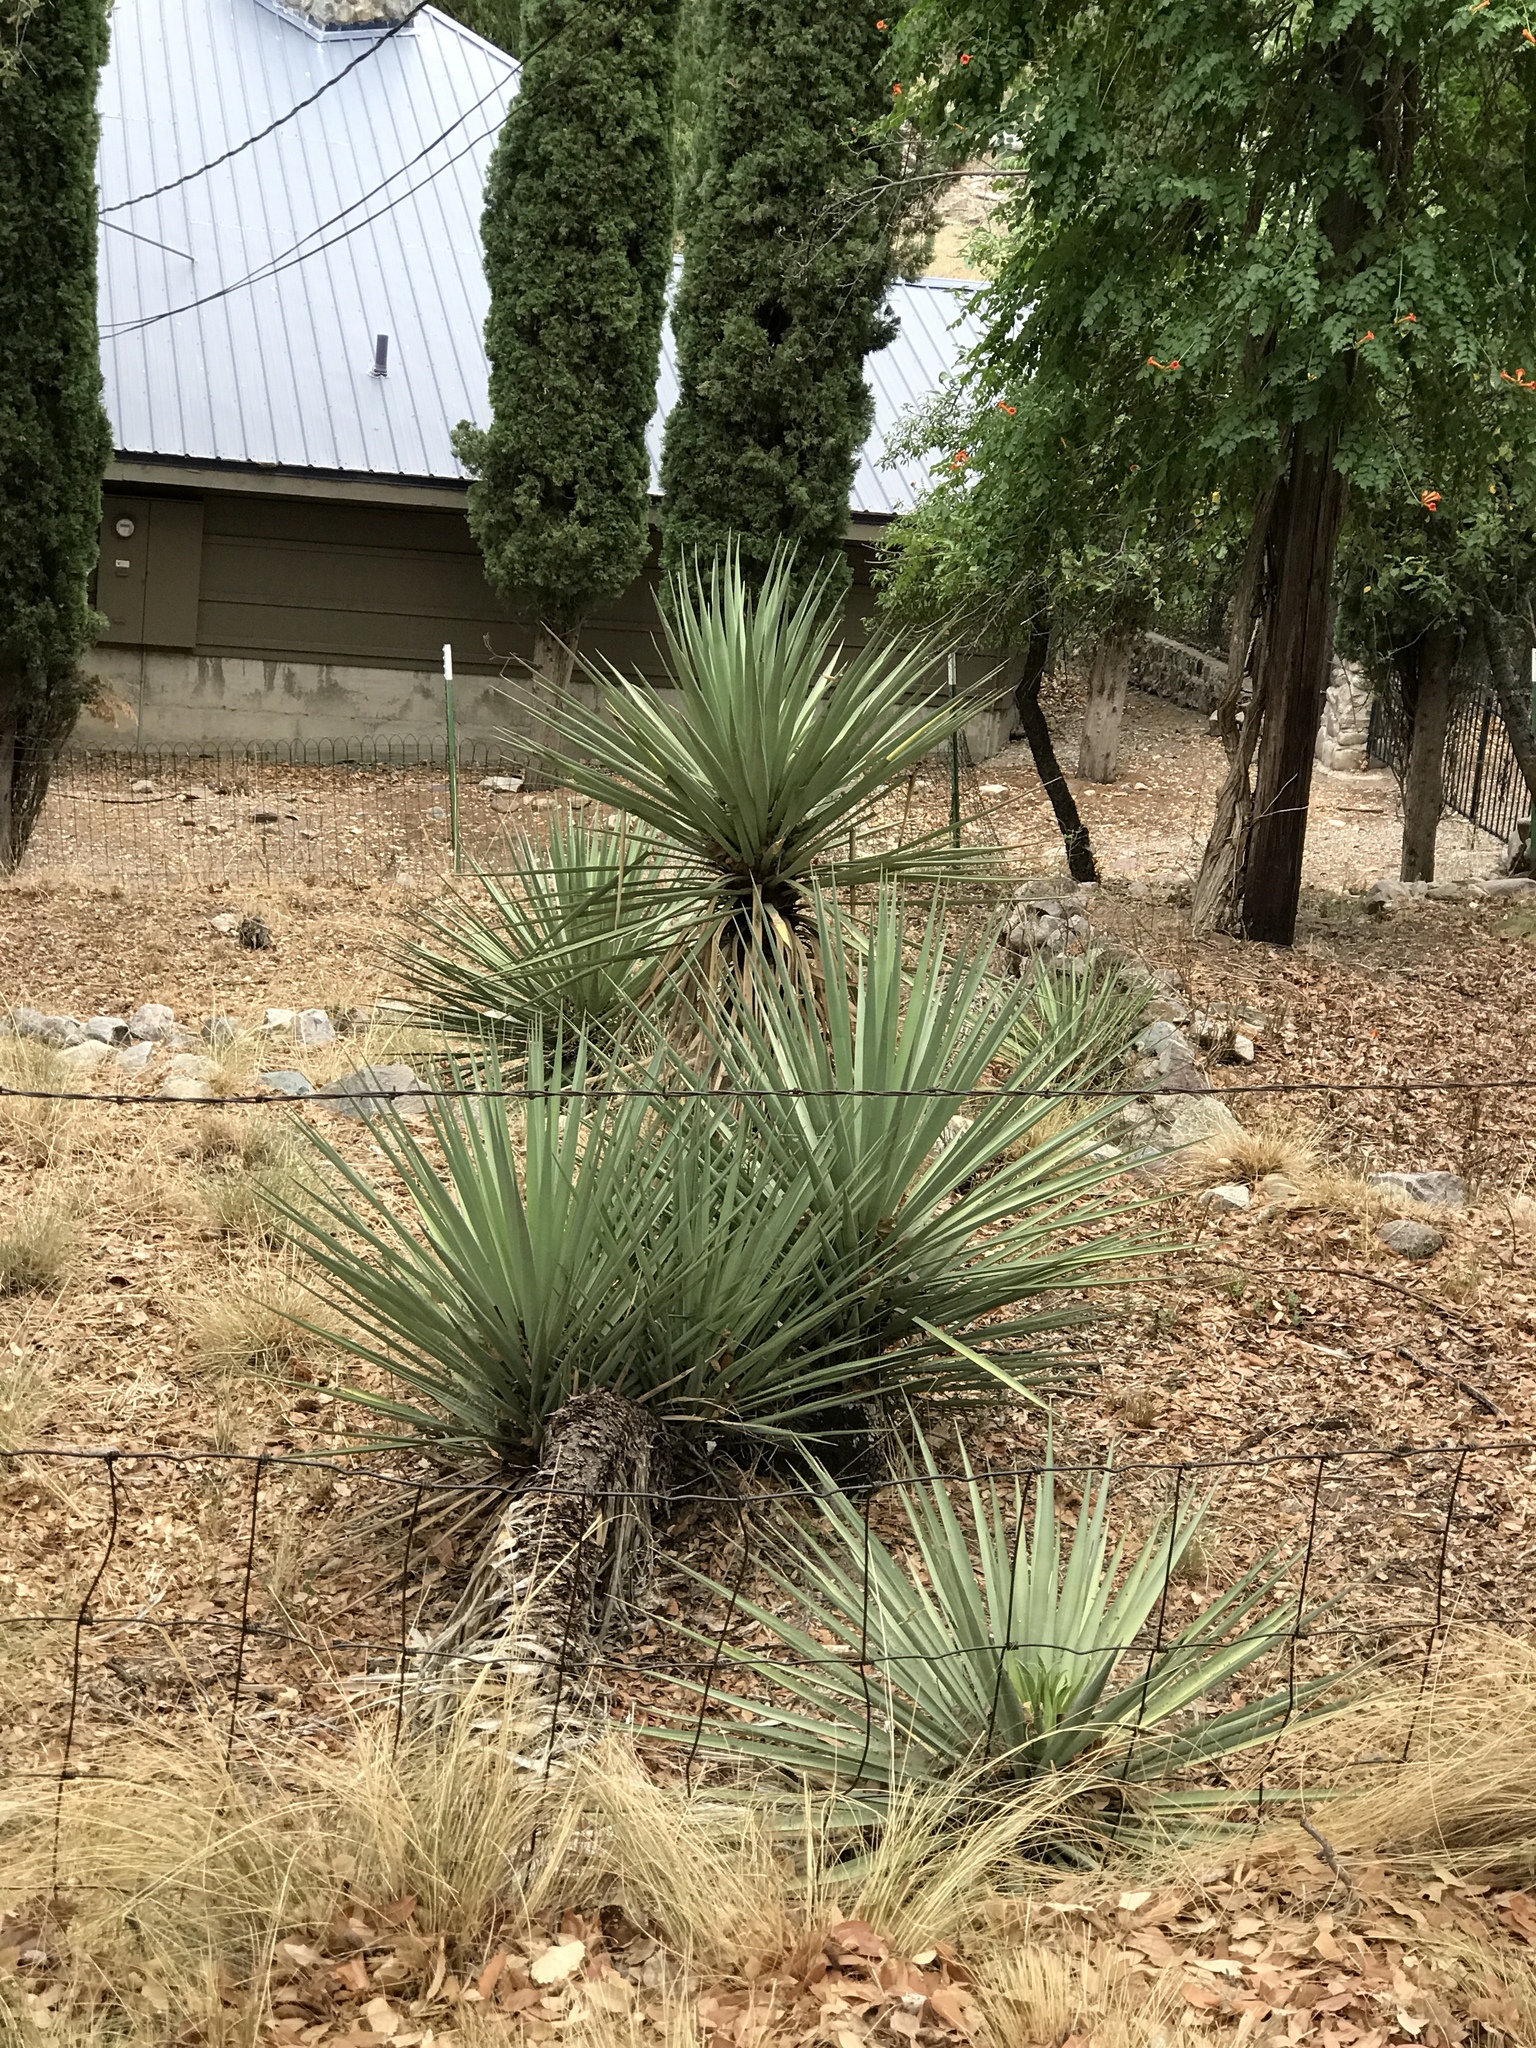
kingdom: Plantae
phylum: Tracheophyta
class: Liliopsida
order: Asparagales
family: Asparagaceae
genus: Yucca
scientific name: Yucca schottii
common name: Hoary yucca
